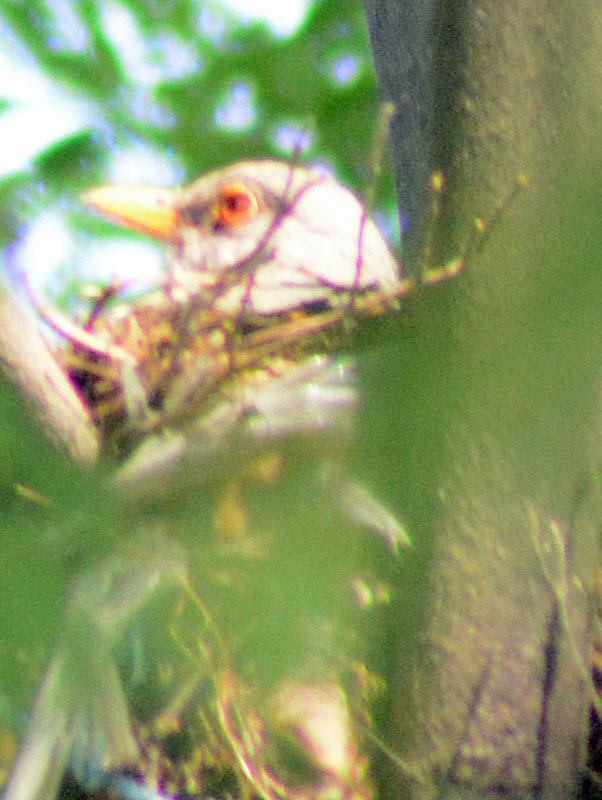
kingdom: Animalia
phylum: Chordata
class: Aves
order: Passeriformes
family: Turdidae
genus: Turdus
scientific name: Turdus rufopalliatus
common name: Rufous-backed robin
